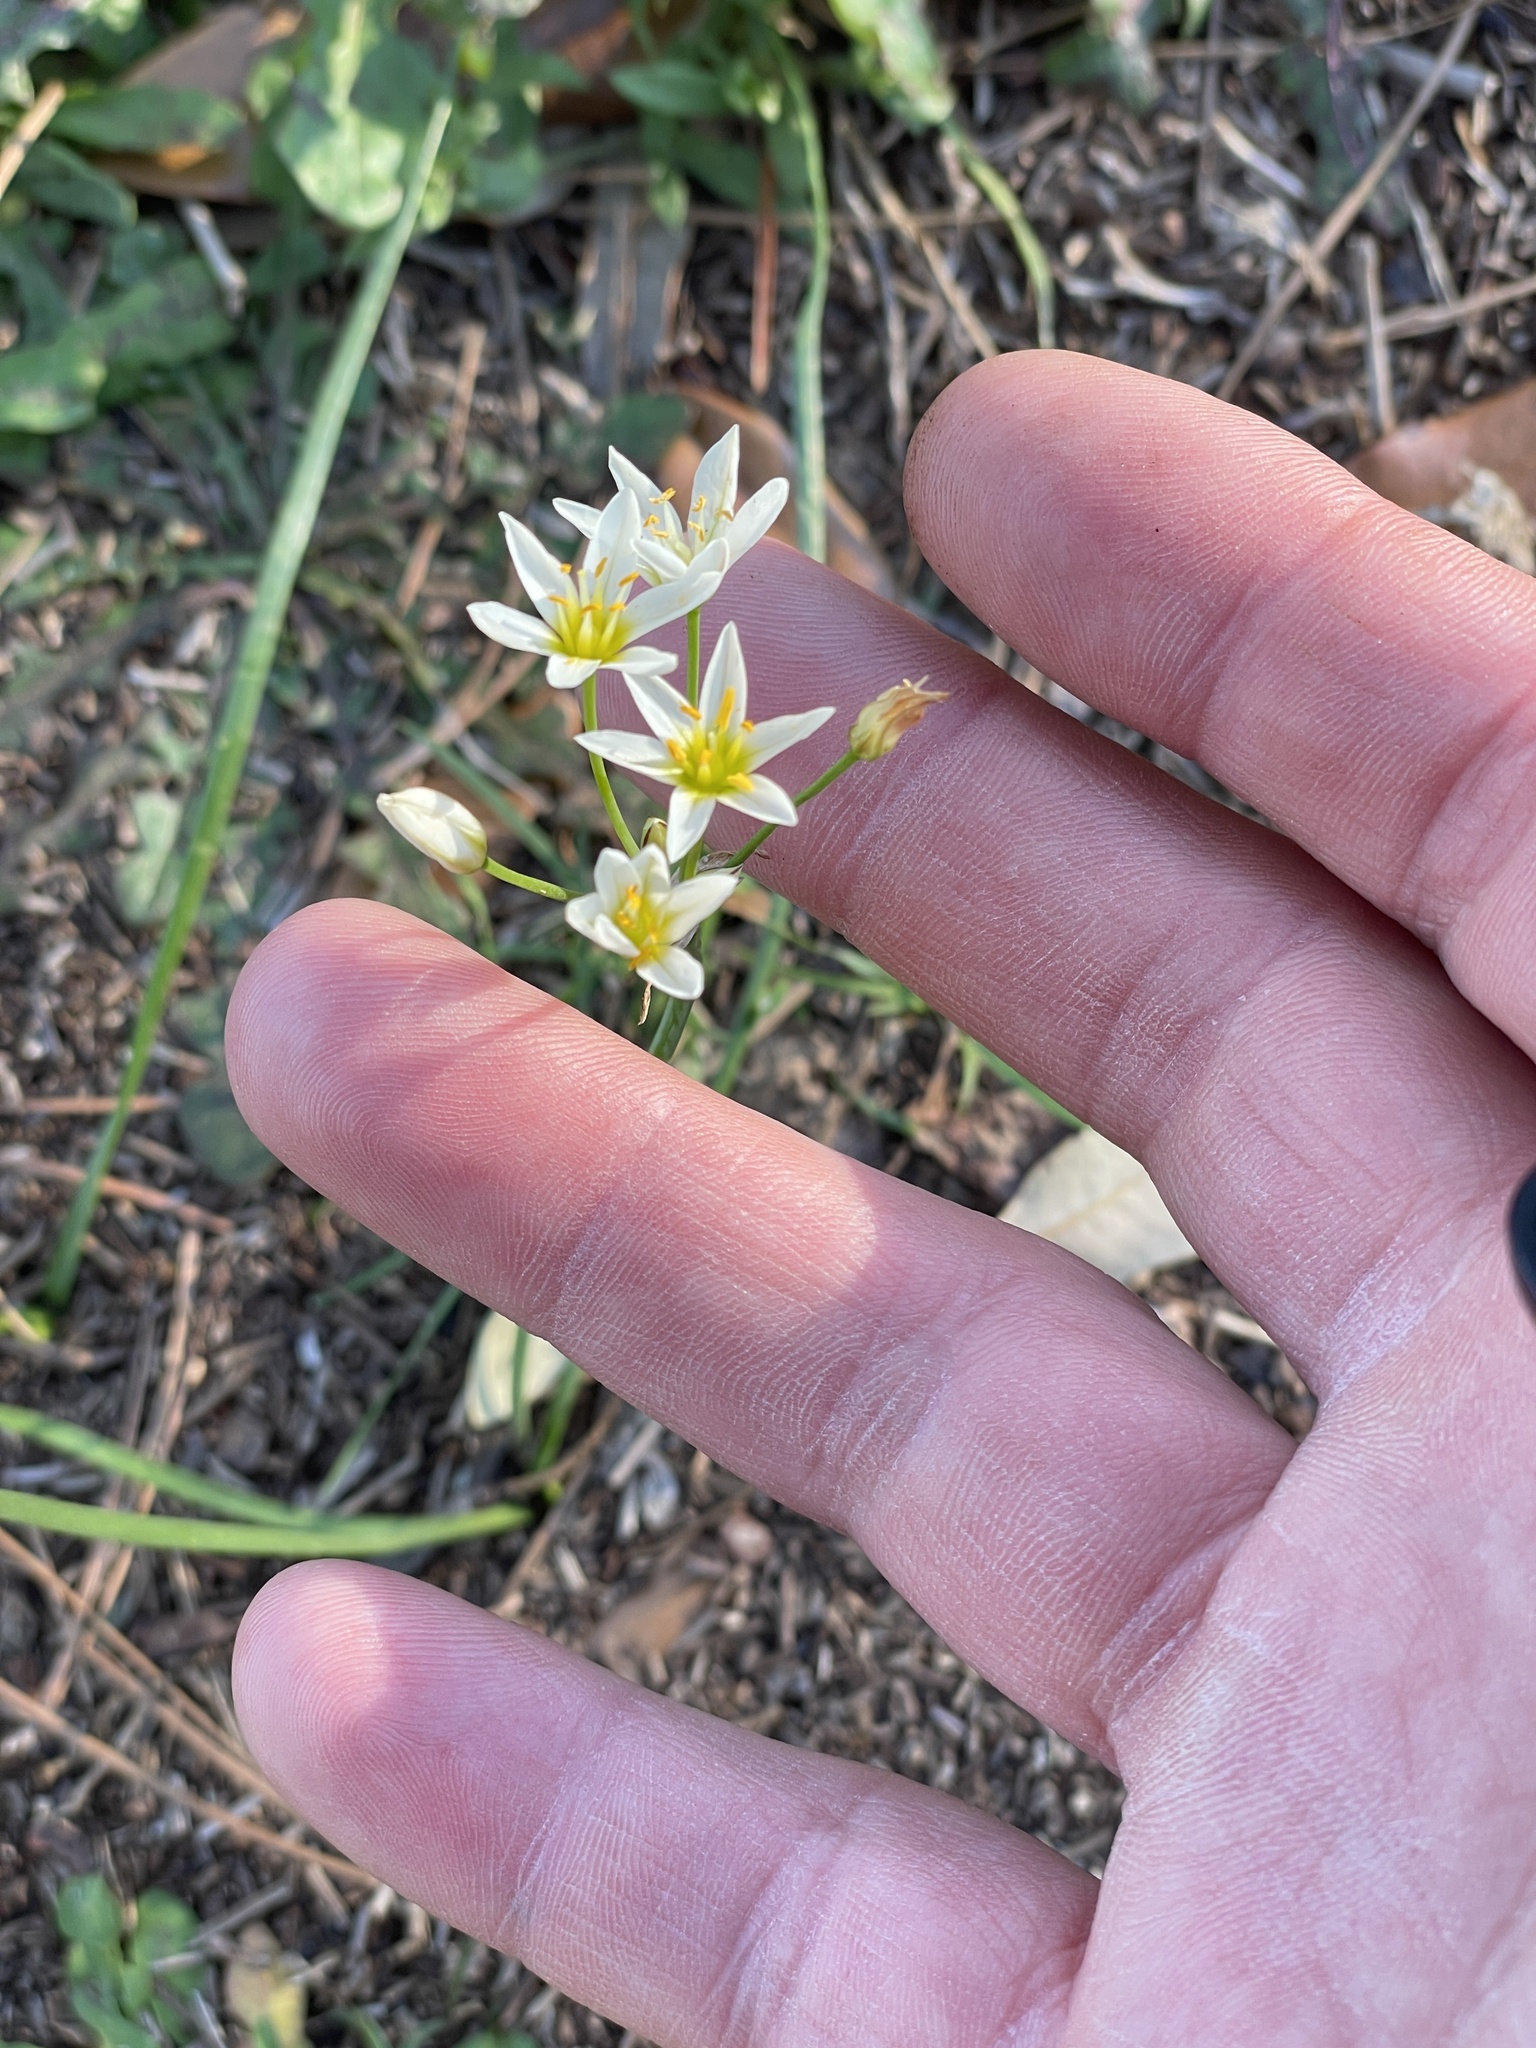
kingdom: Plantae
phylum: Tracheophyta
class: Liliopsida
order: Asparagales
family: Amaryllidaceae
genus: Nothoscordum
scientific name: Nothoscordum bivalve
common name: Crow-poison
